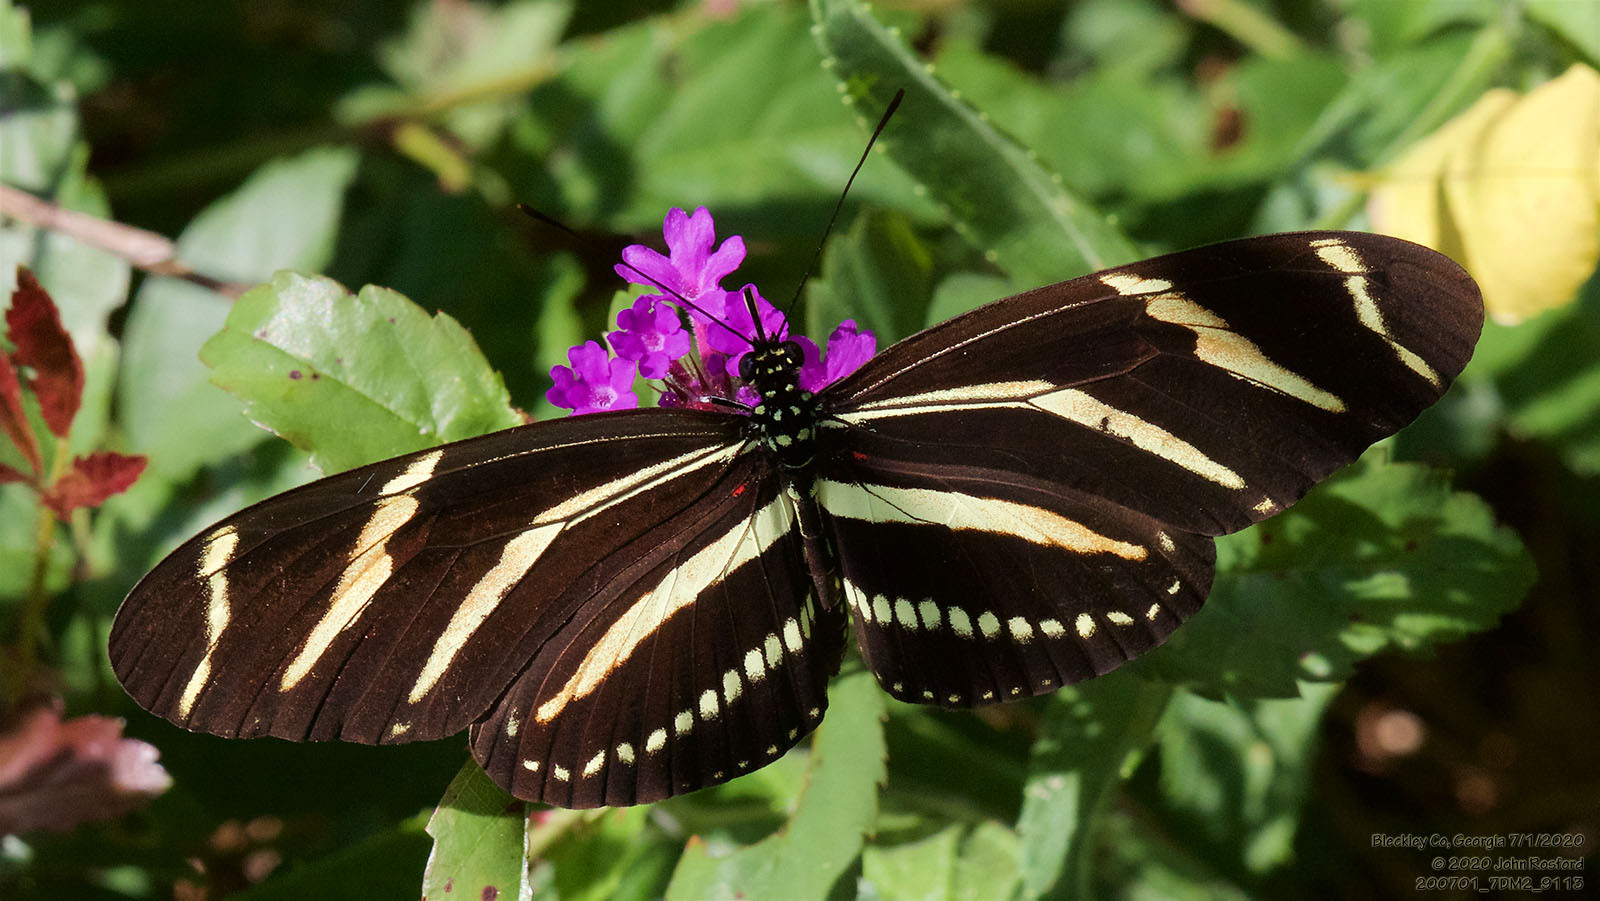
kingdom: Animalia
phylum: Arthropoda
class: Insecta
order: Lepidoptera
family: Nymphalidae
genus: Heliconius
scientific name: Heliconius charithonia
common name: Zebra long wing
